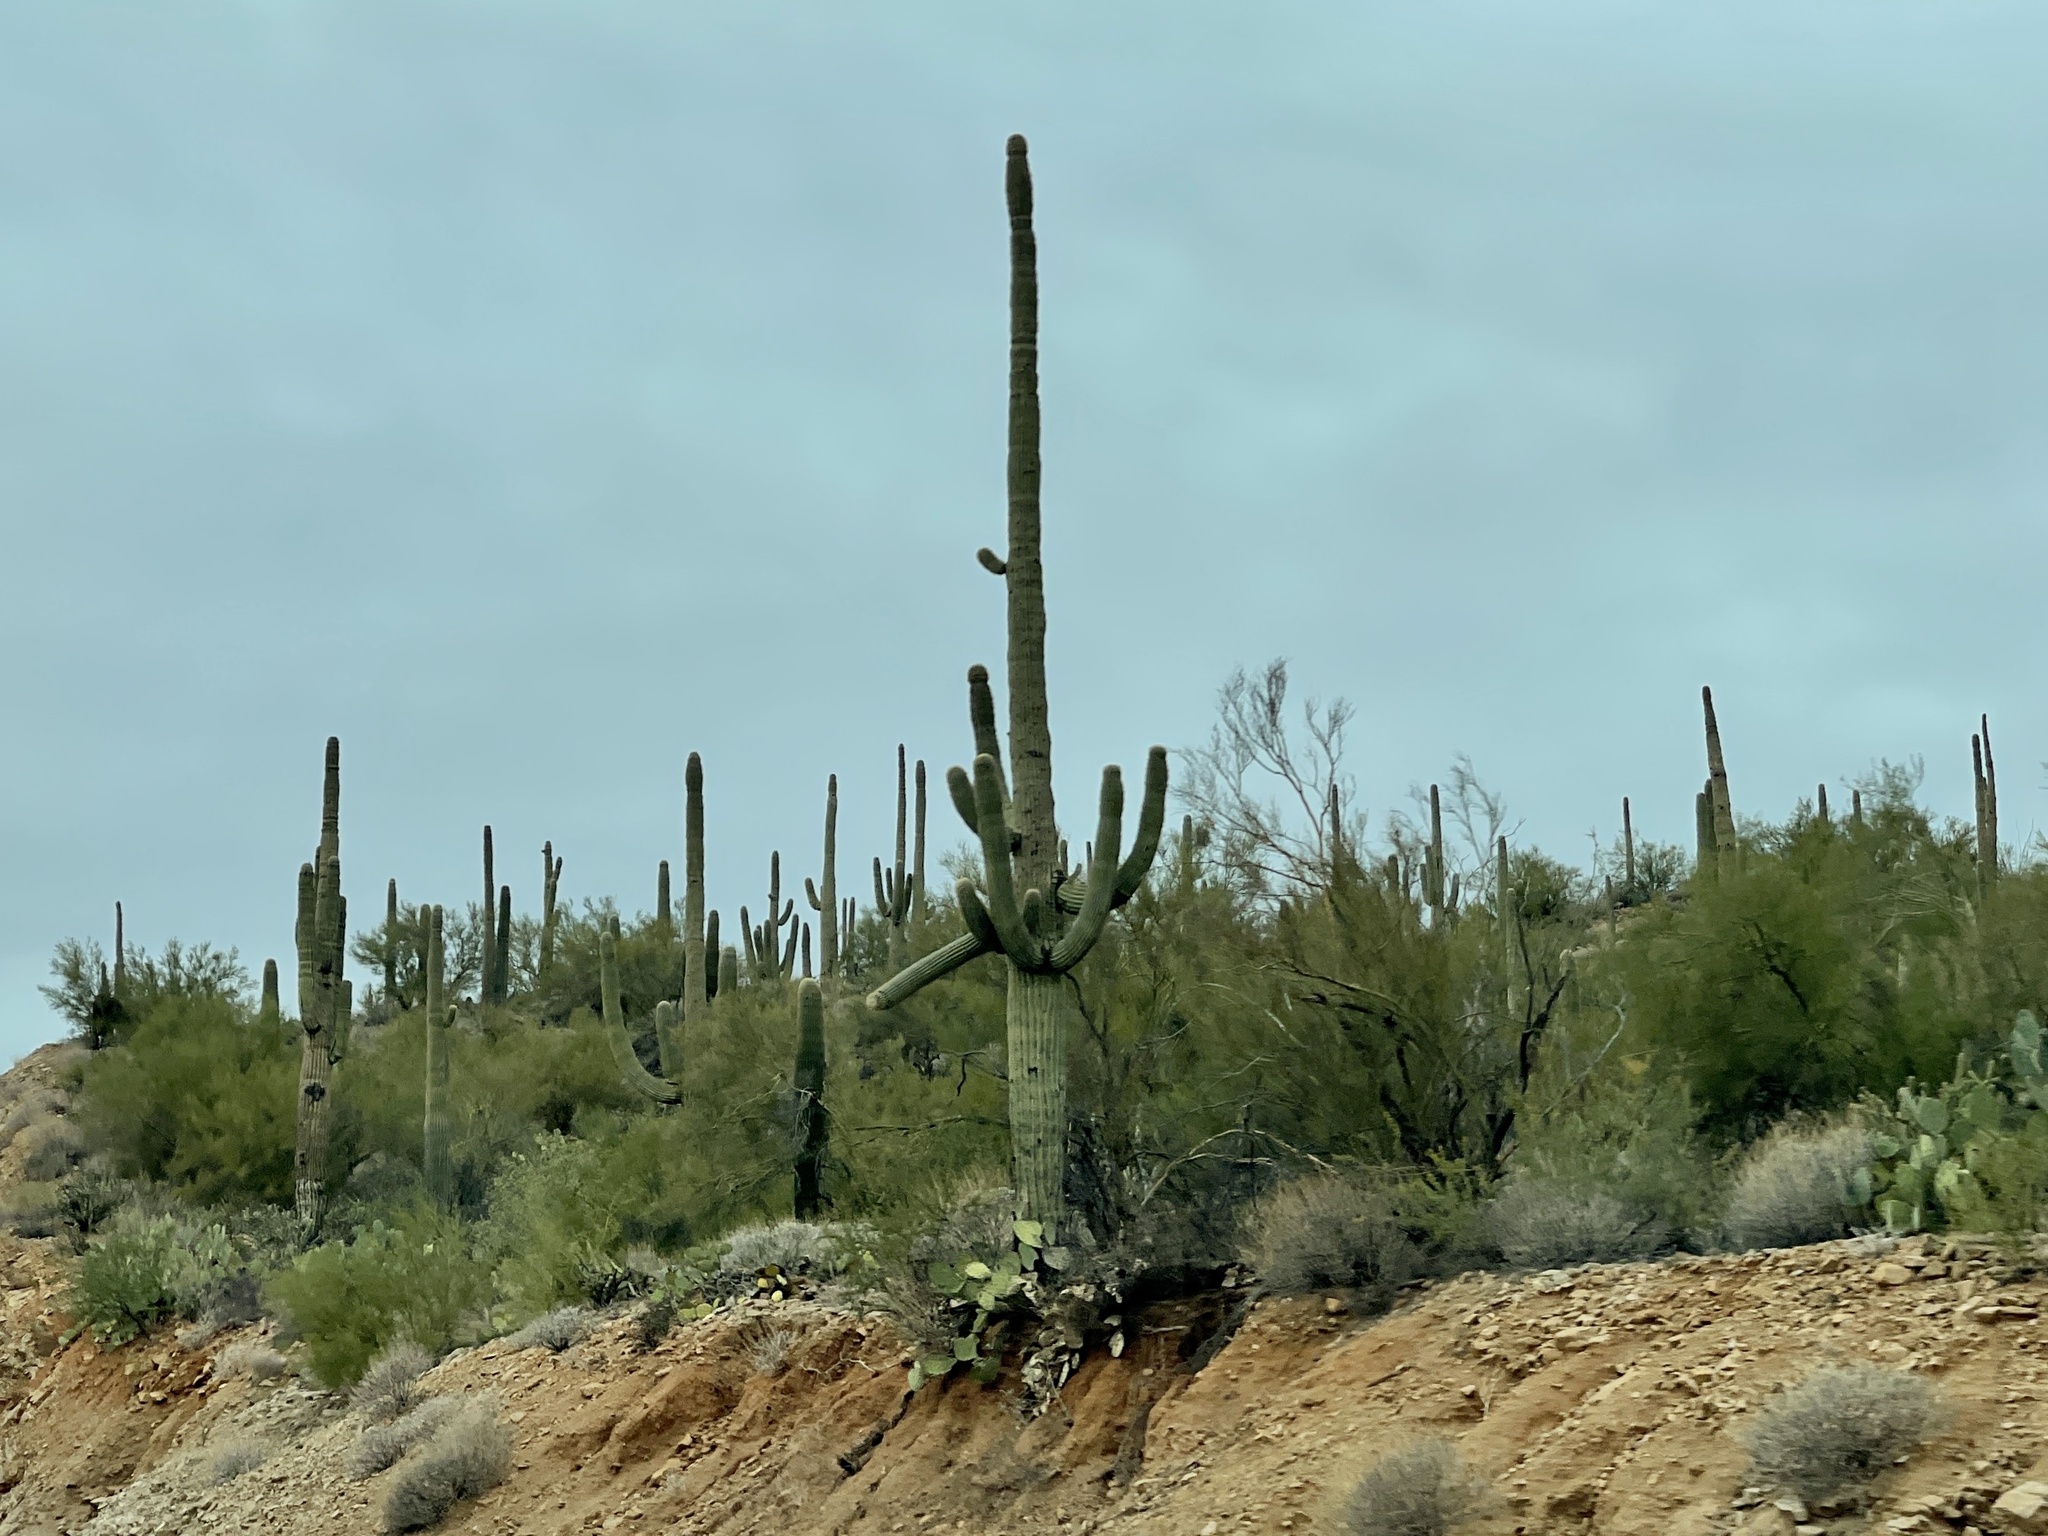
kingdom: Plantae
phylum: Tracheophyta
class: Magnoliopsida
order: Caryophyllales
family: Cactaceae
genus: Carnegiea
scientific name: Carnegiea gigantea
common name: Saguaro
